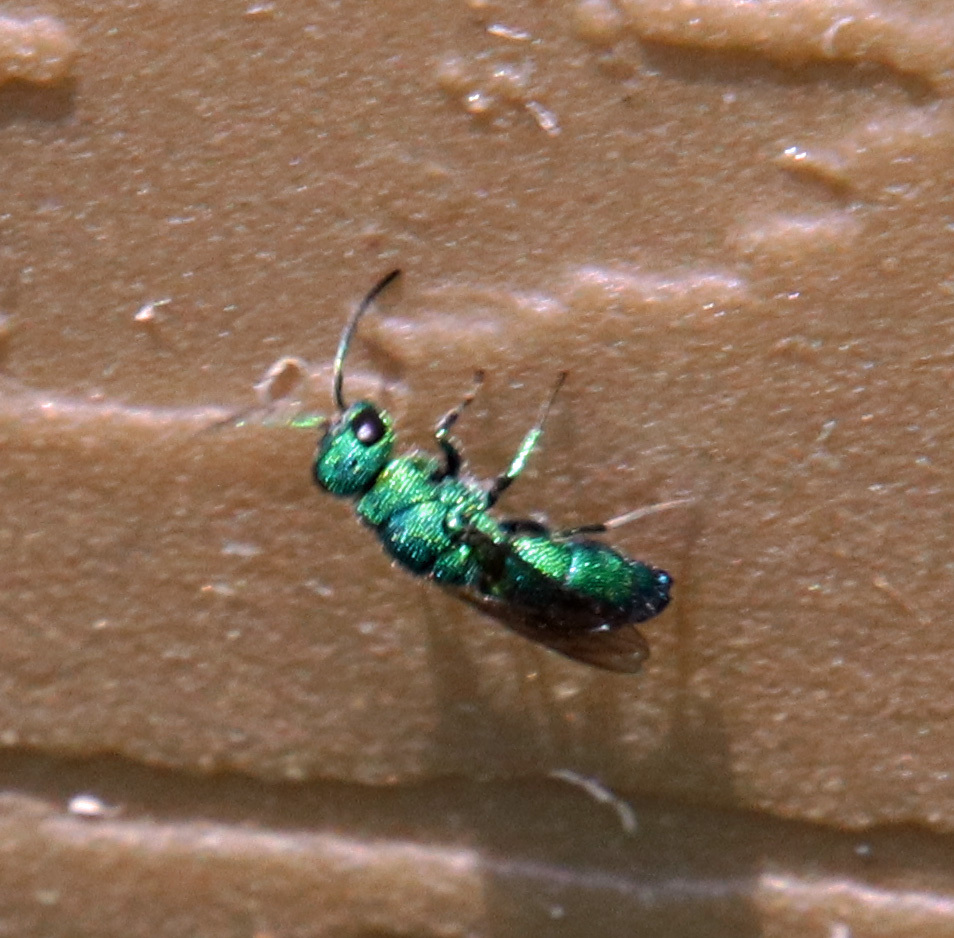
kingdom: Animalia
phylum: Arthropoda
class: Insecta
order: Hymenoptera
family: Chrysididae
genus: Chrysis
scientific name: Chrysis angolensis
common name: Cuckoo wasp
